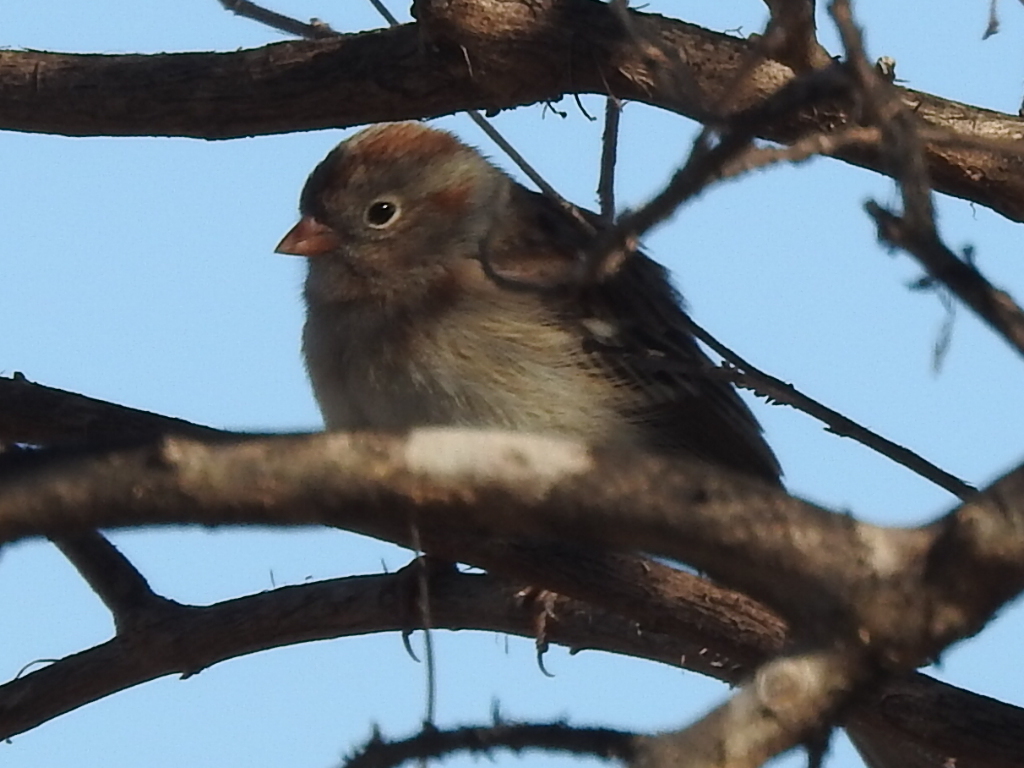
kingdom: Animalia
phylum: Chordata
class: Aves
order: Passeriformes
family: Passerellidae
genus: Spizella
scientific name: Spizella pusilla
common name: Field sparrow
